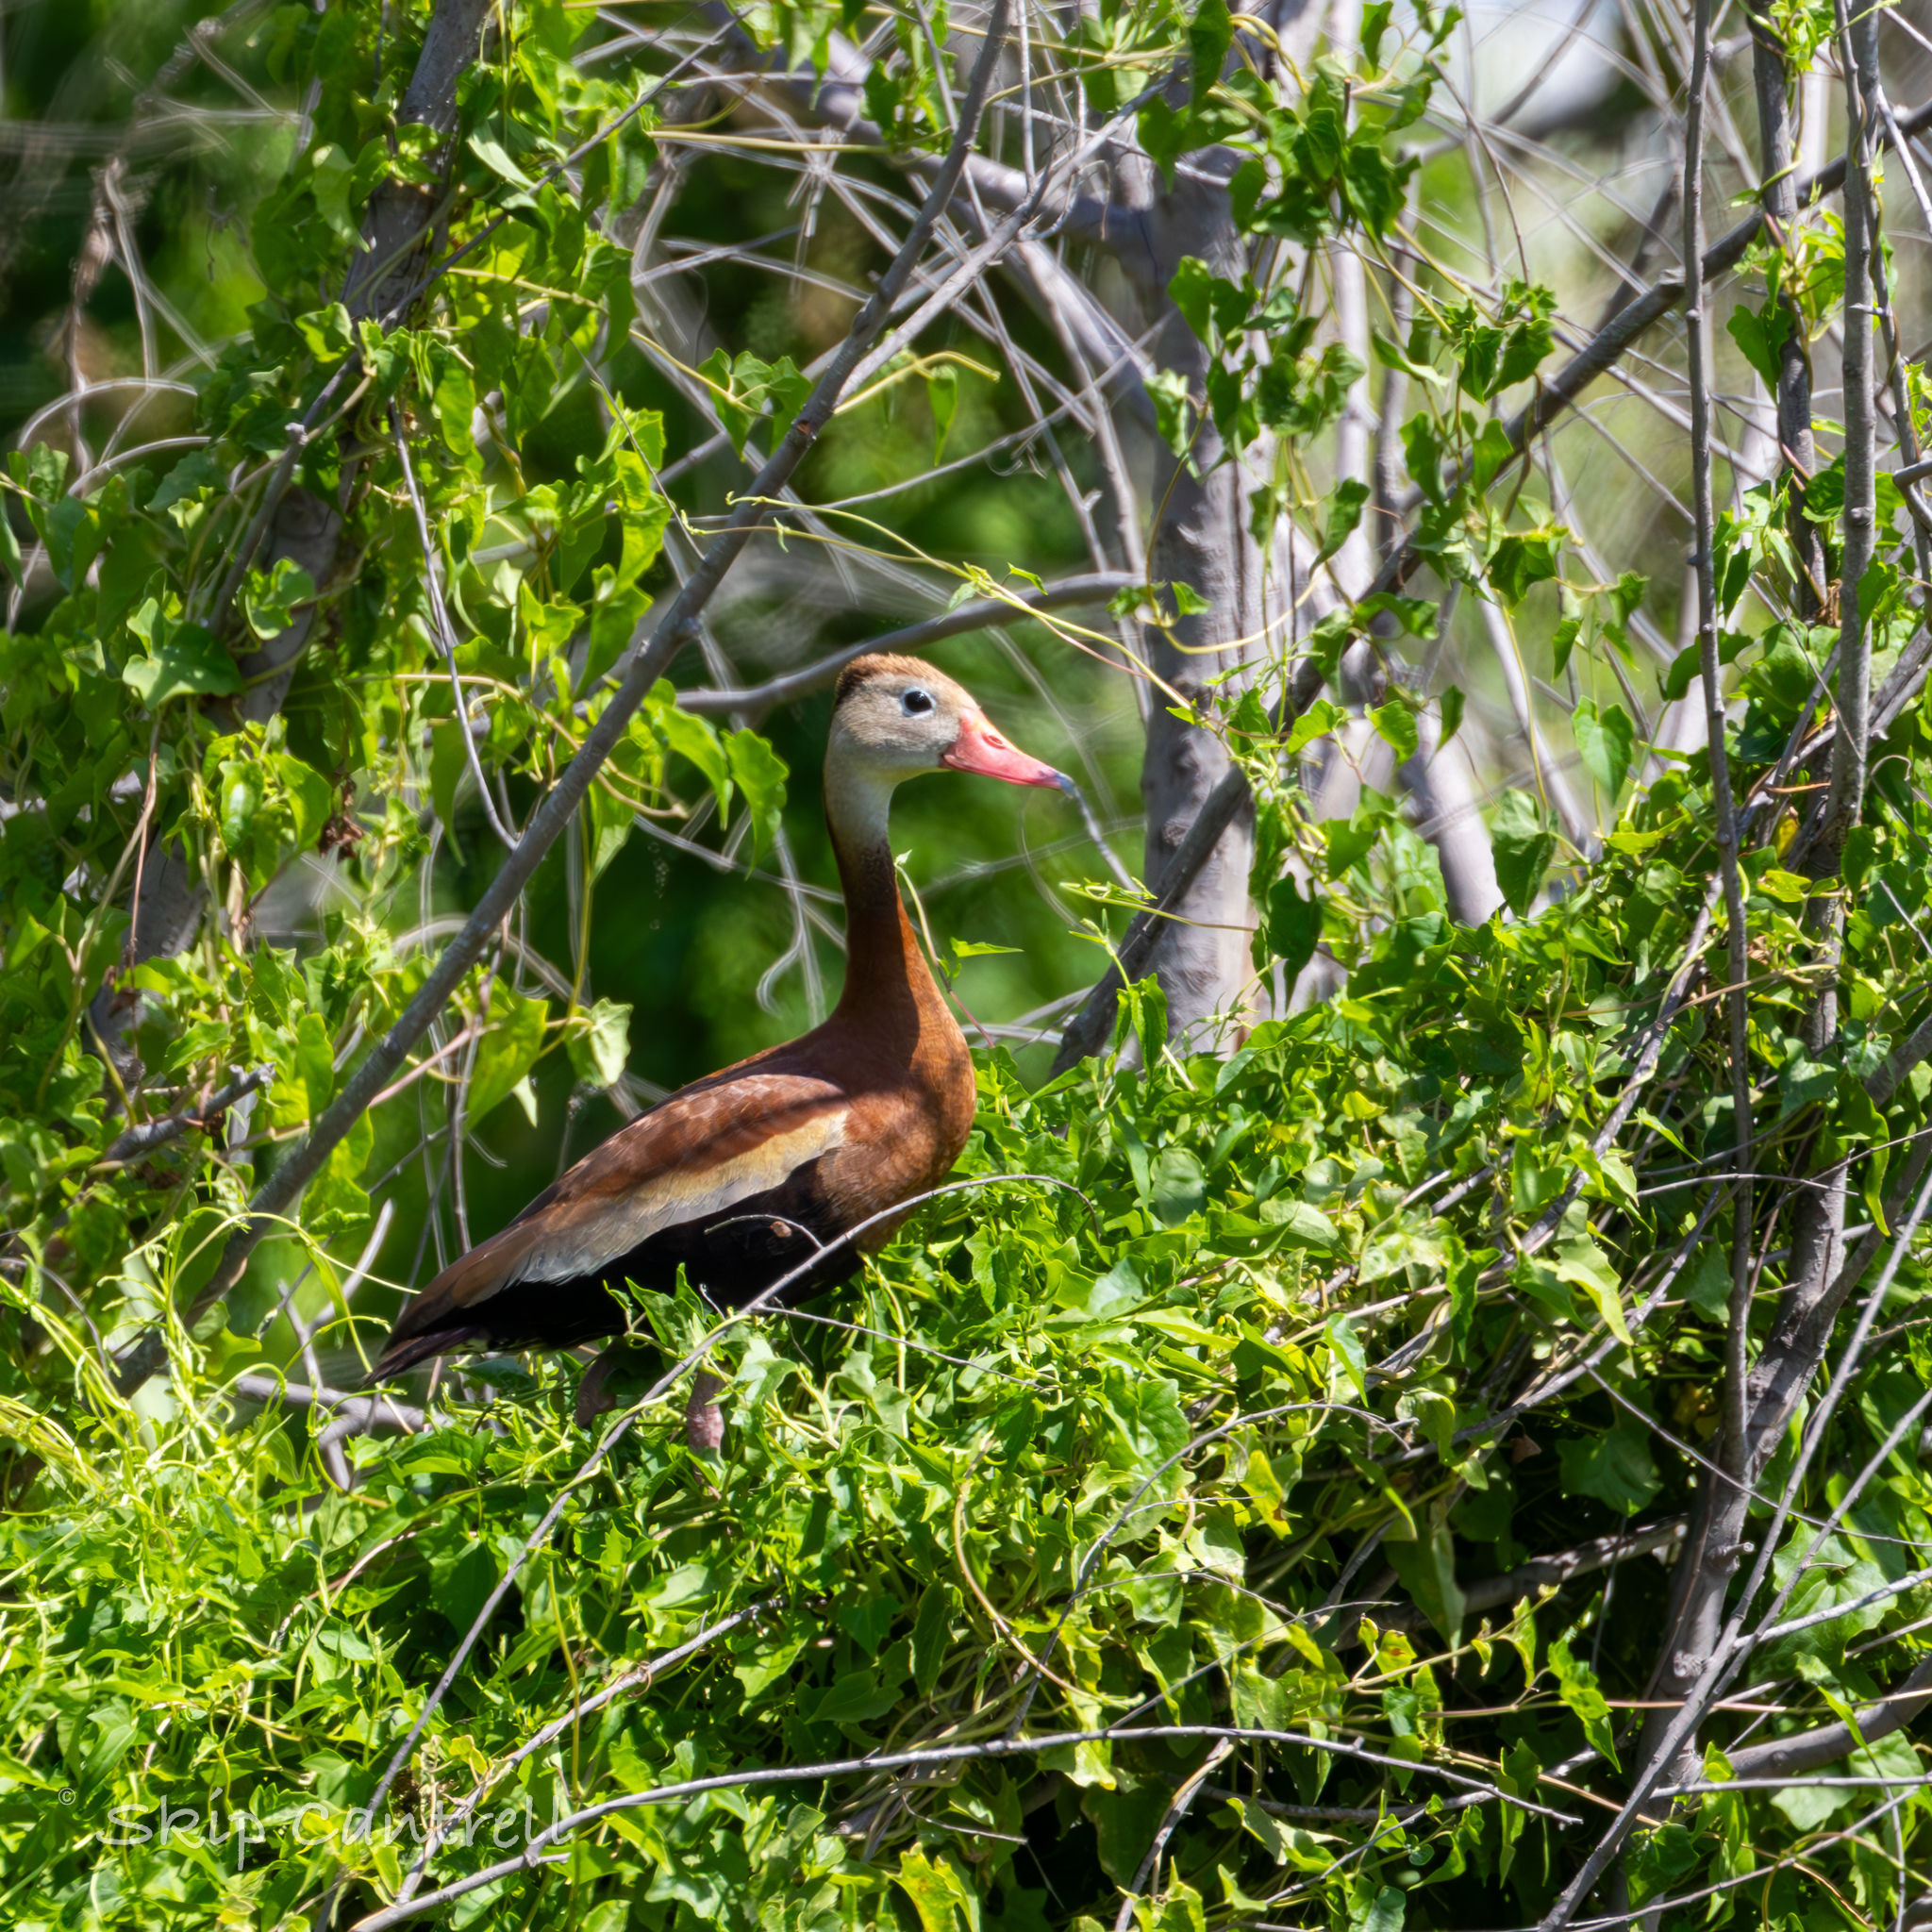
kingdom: Animalia
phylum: Chordata
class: Aves
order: Anseriformes
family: Anatidae
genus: Dendrocygna
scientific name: Dendrocygna autumnalis
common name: Black-bellied whistling duck
